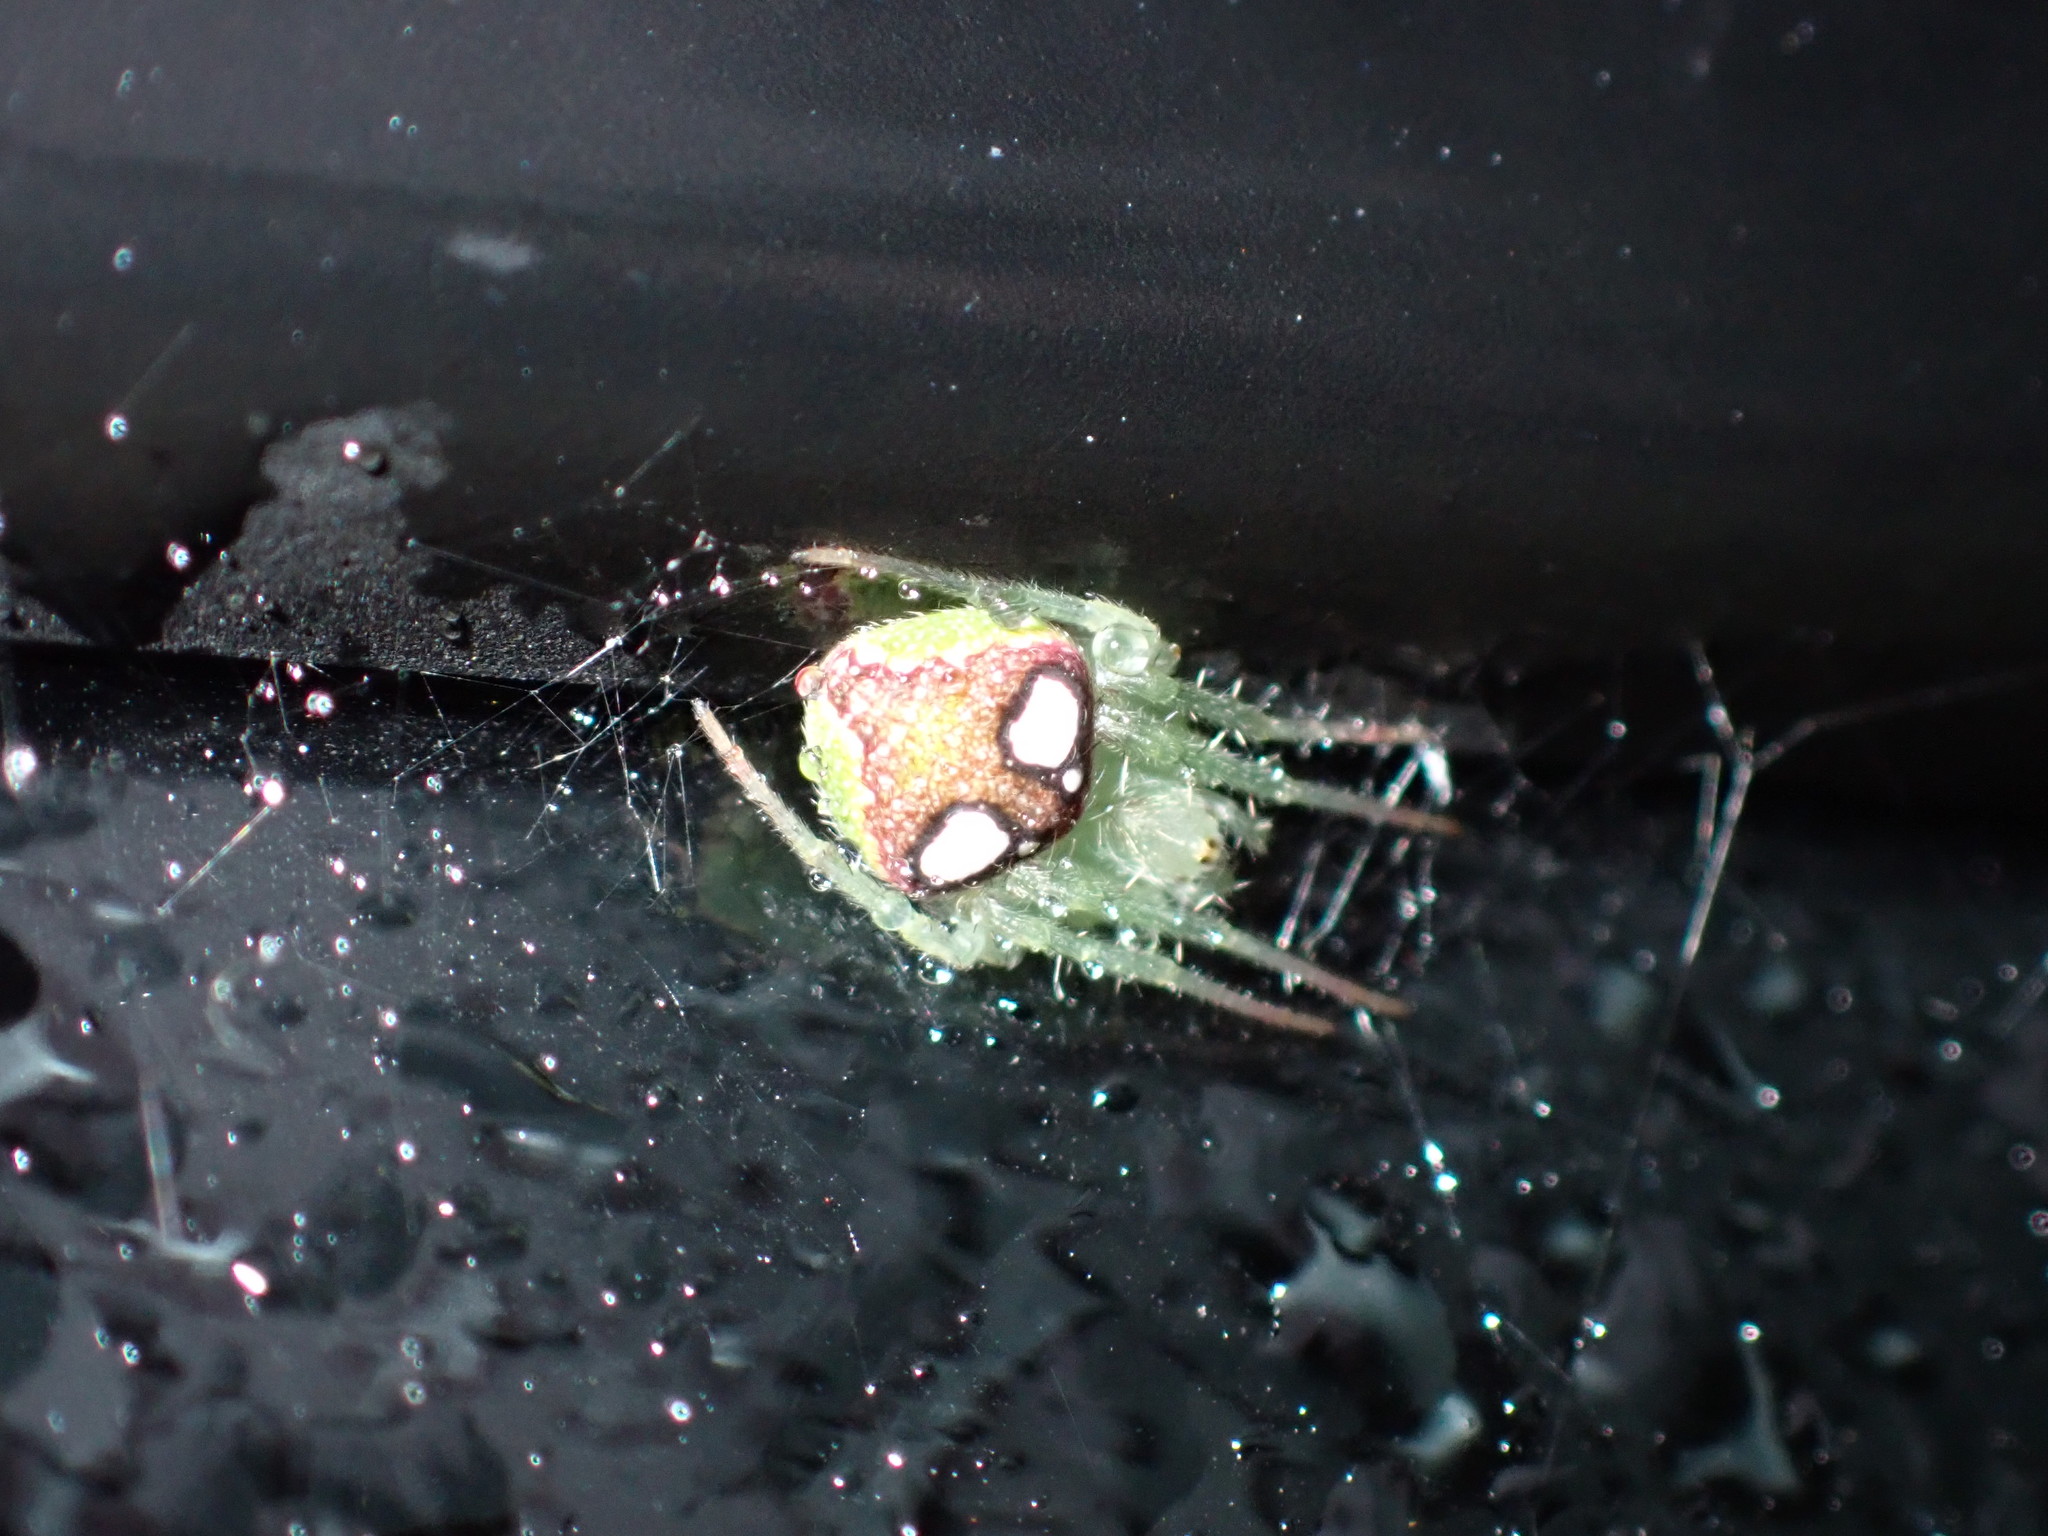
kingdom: Animalia
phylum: Arthropoda
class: Arachnida
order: Araneae
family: Araneidae
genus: Araneus
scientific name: Araneus circulissparsus
